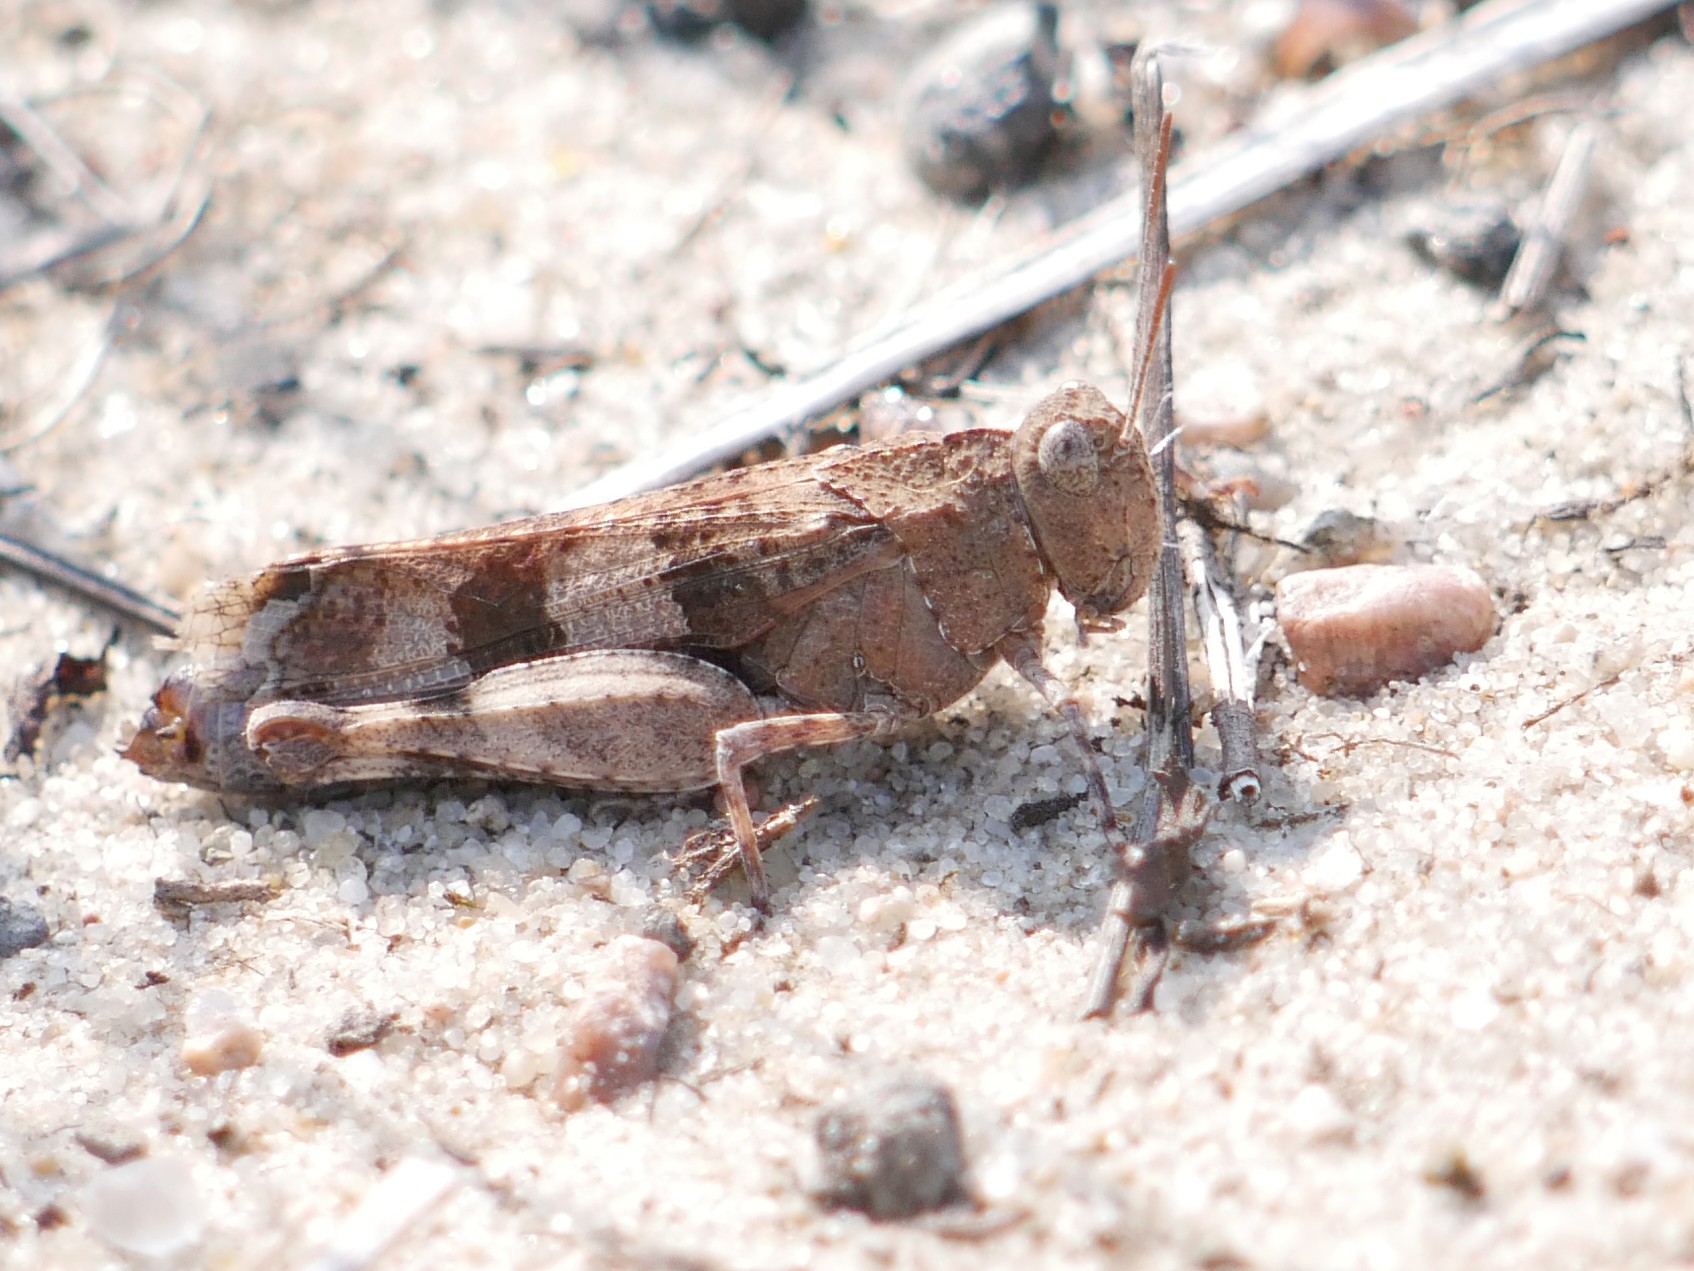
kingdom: Animalia
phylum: Arthropoda
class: Insecta
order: Orthoptera
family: Acrididae
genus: Oedipoda
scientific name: Oedipoda caerulescens
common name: Blue-winged grasshopper
